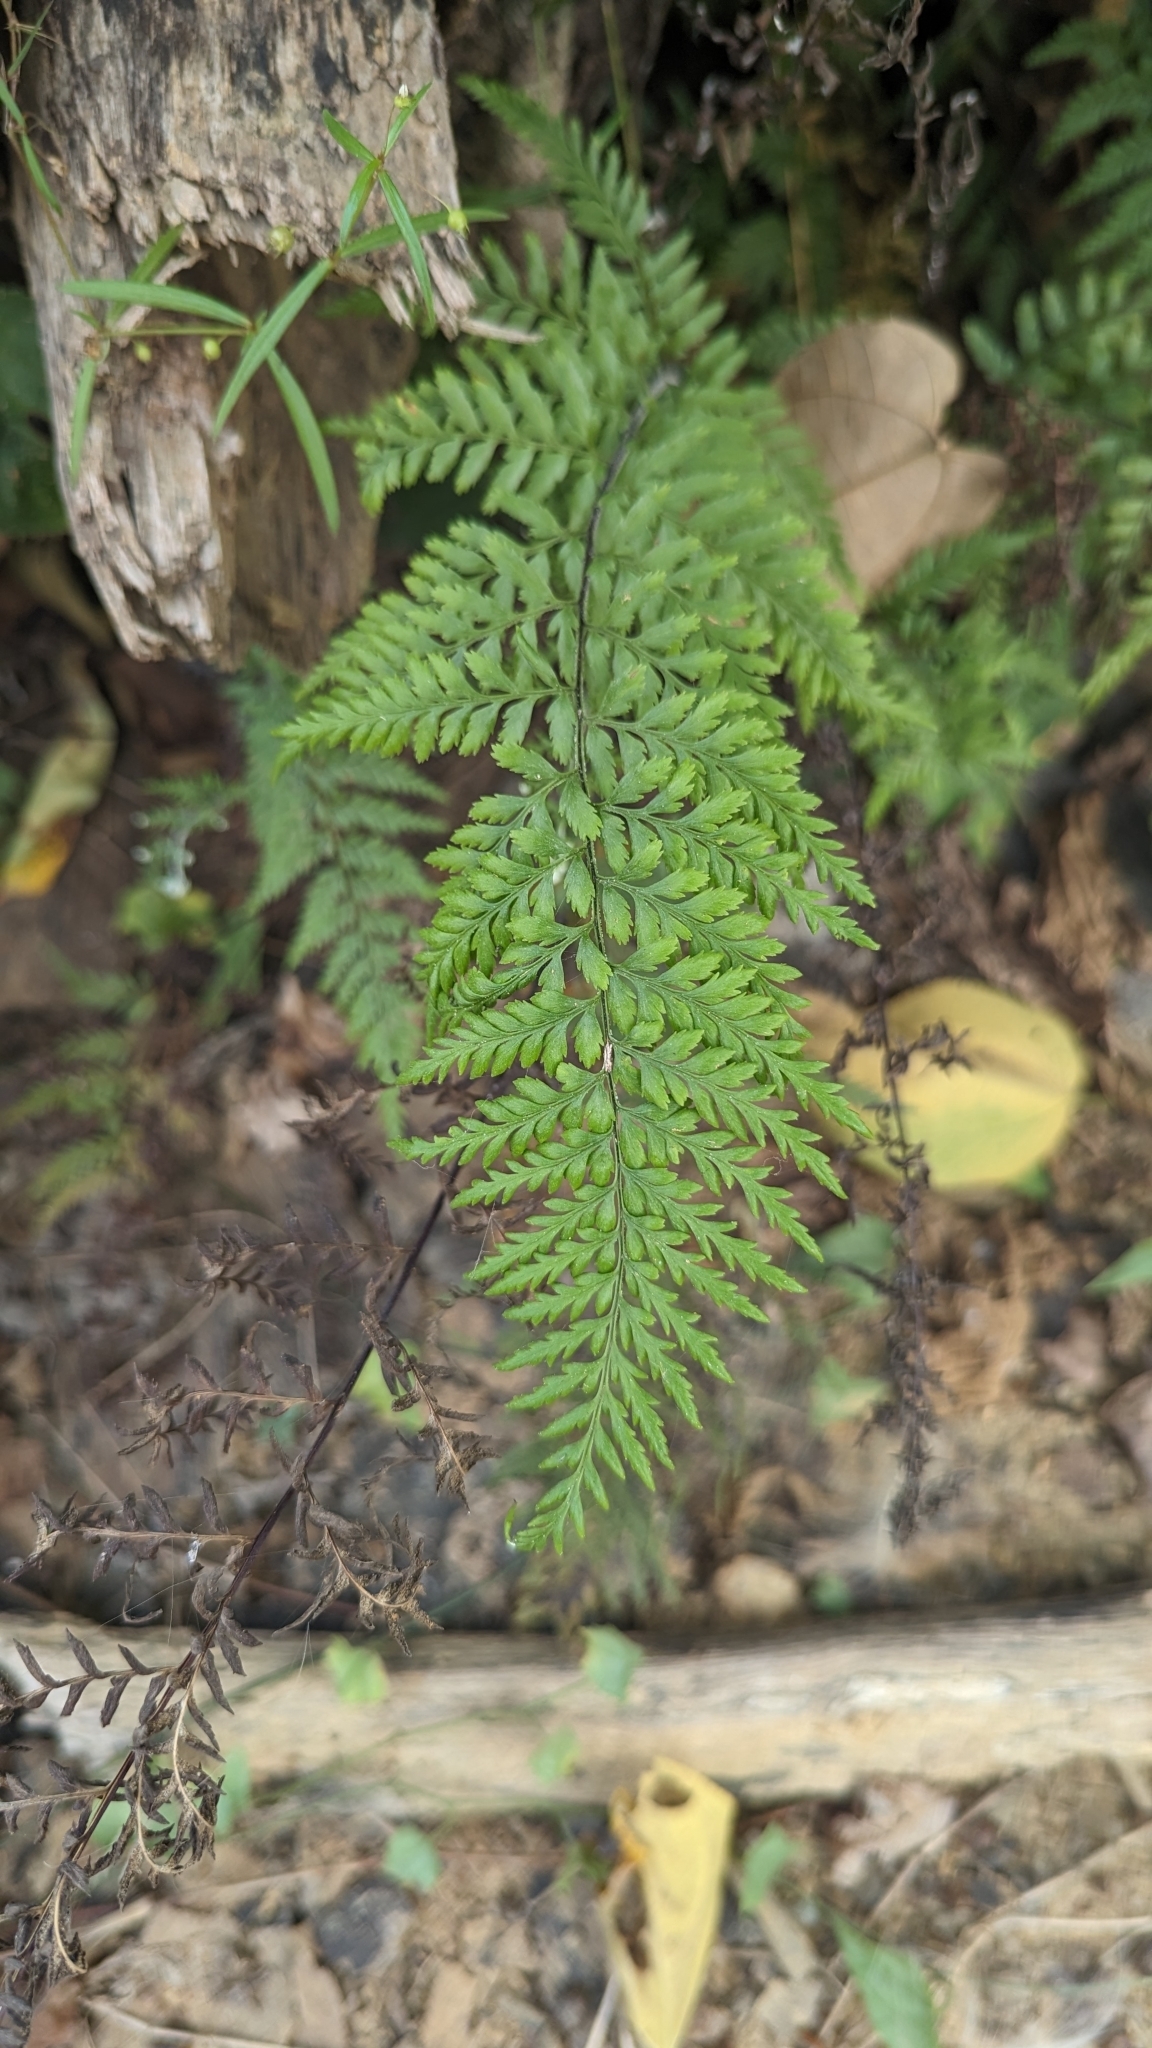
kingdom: Plantae
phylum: Tracheophyta
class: Polypodiopsida
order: Polypodiales
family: Pteridaceae
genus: Pityrogramma
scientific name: Pityrogramma calomelanos
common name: Dixie silverback fern
